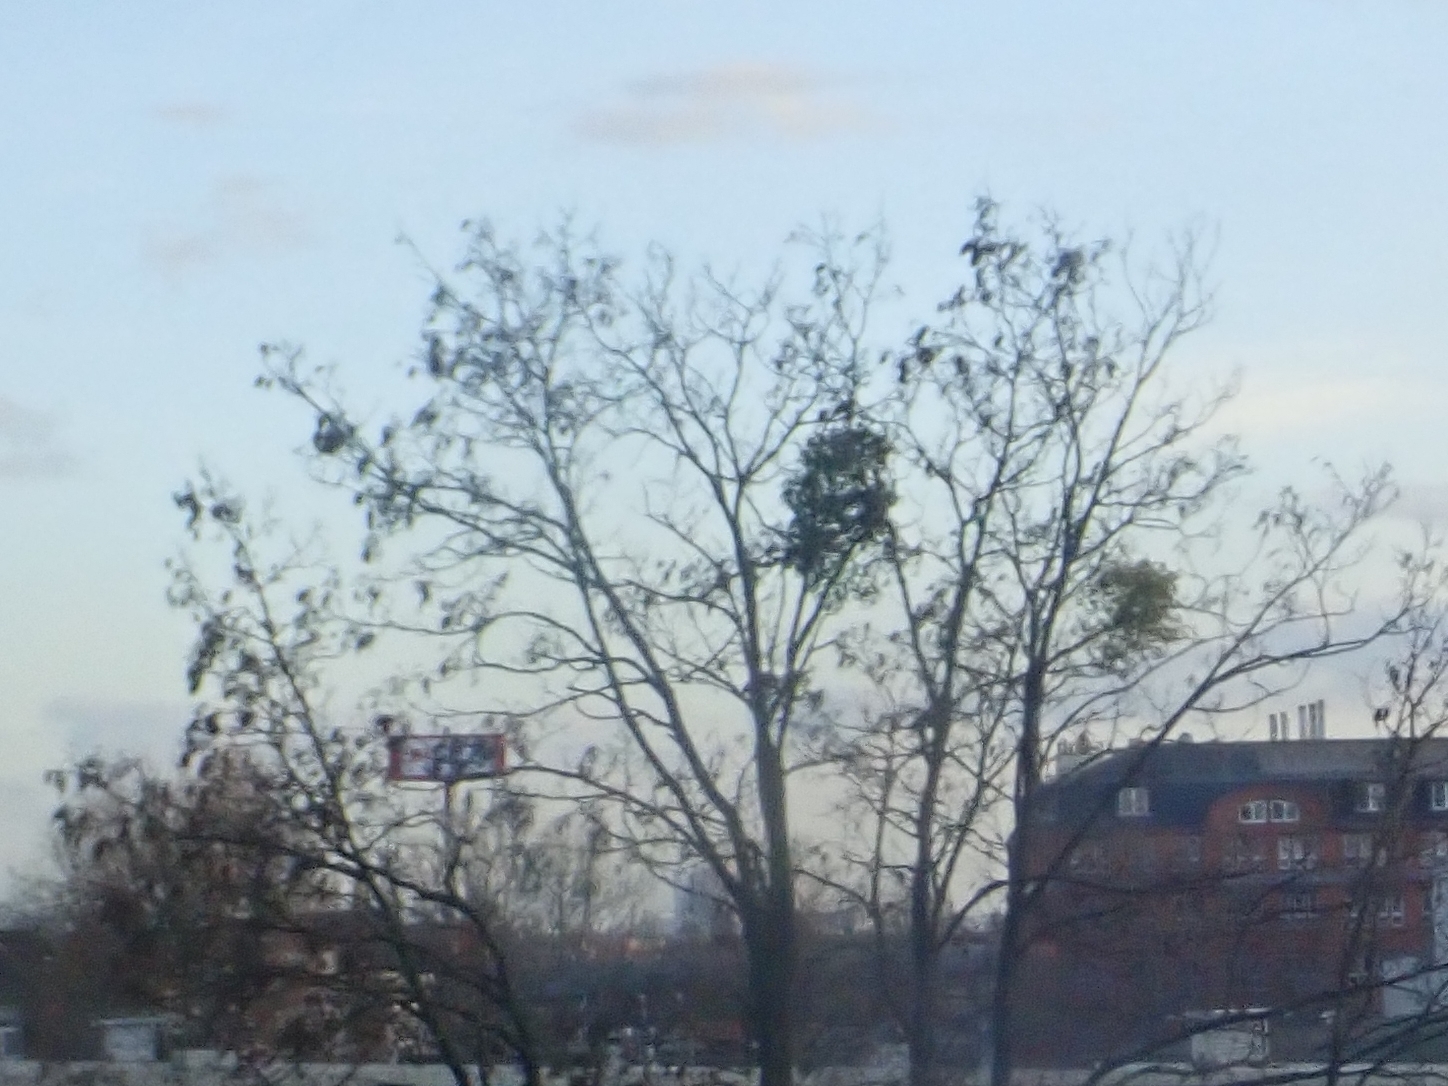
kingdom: Plantae
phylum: Tracheophyta
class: Magnoliopsida
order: Santalales
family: Viscaceae
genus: Viscum
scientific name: Viscum album
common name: Mistletoe
